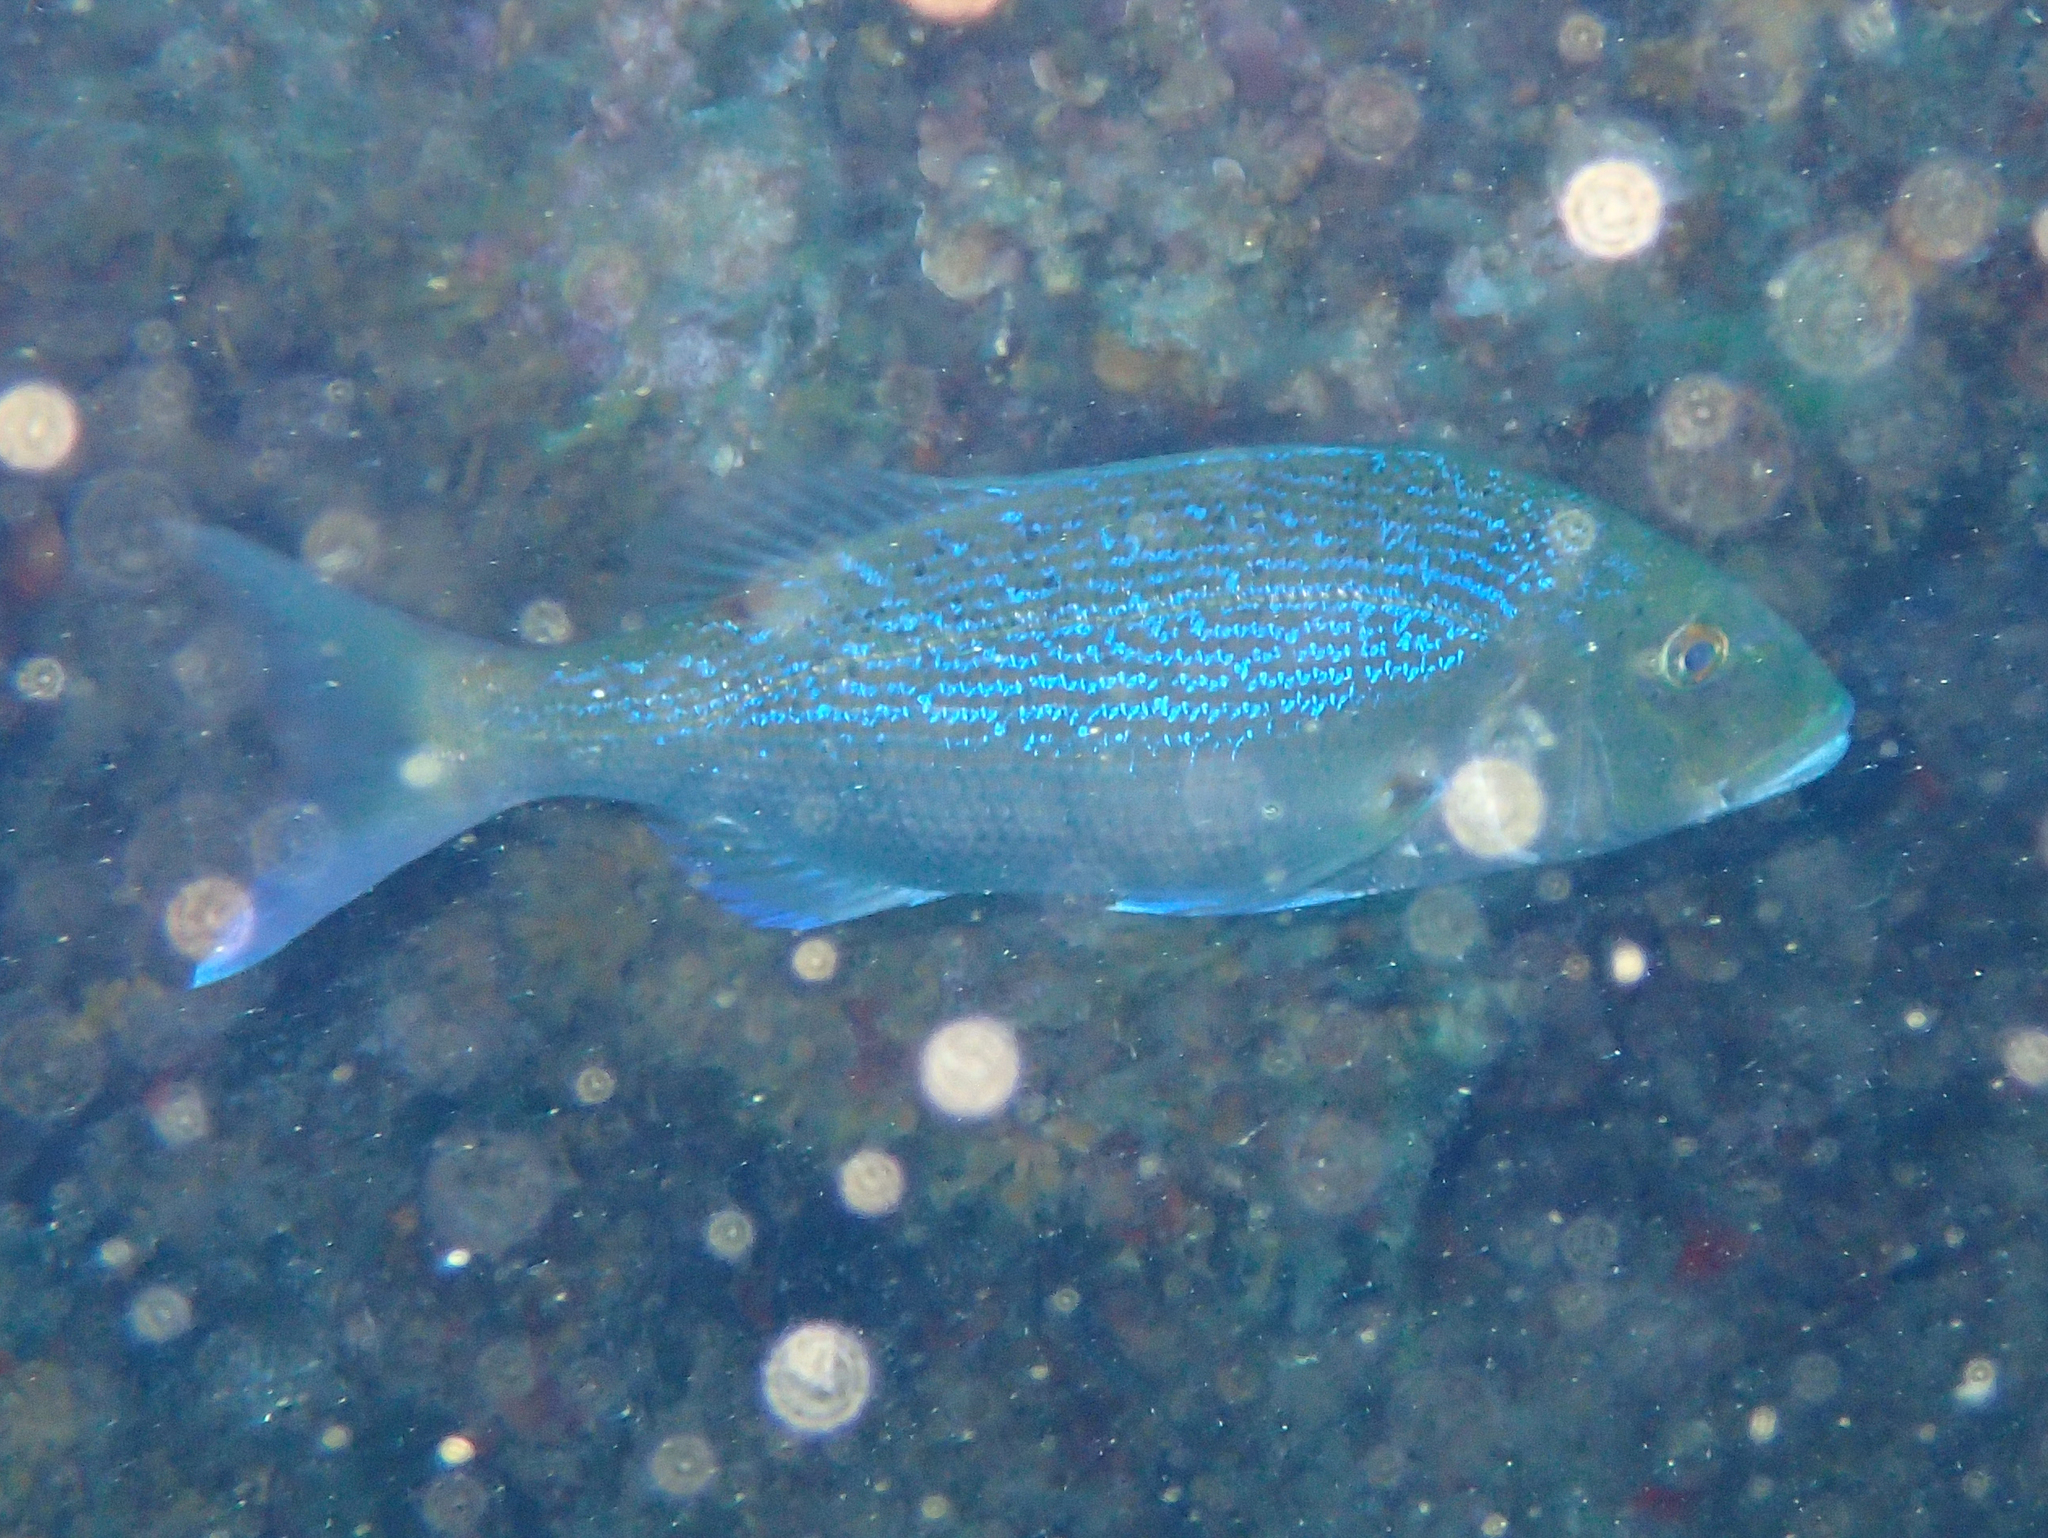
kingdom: Animalia
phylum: Chordata
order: Perciformes
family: Sparidae
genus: Dentex
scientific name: Dentex dentex
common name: Dentex
